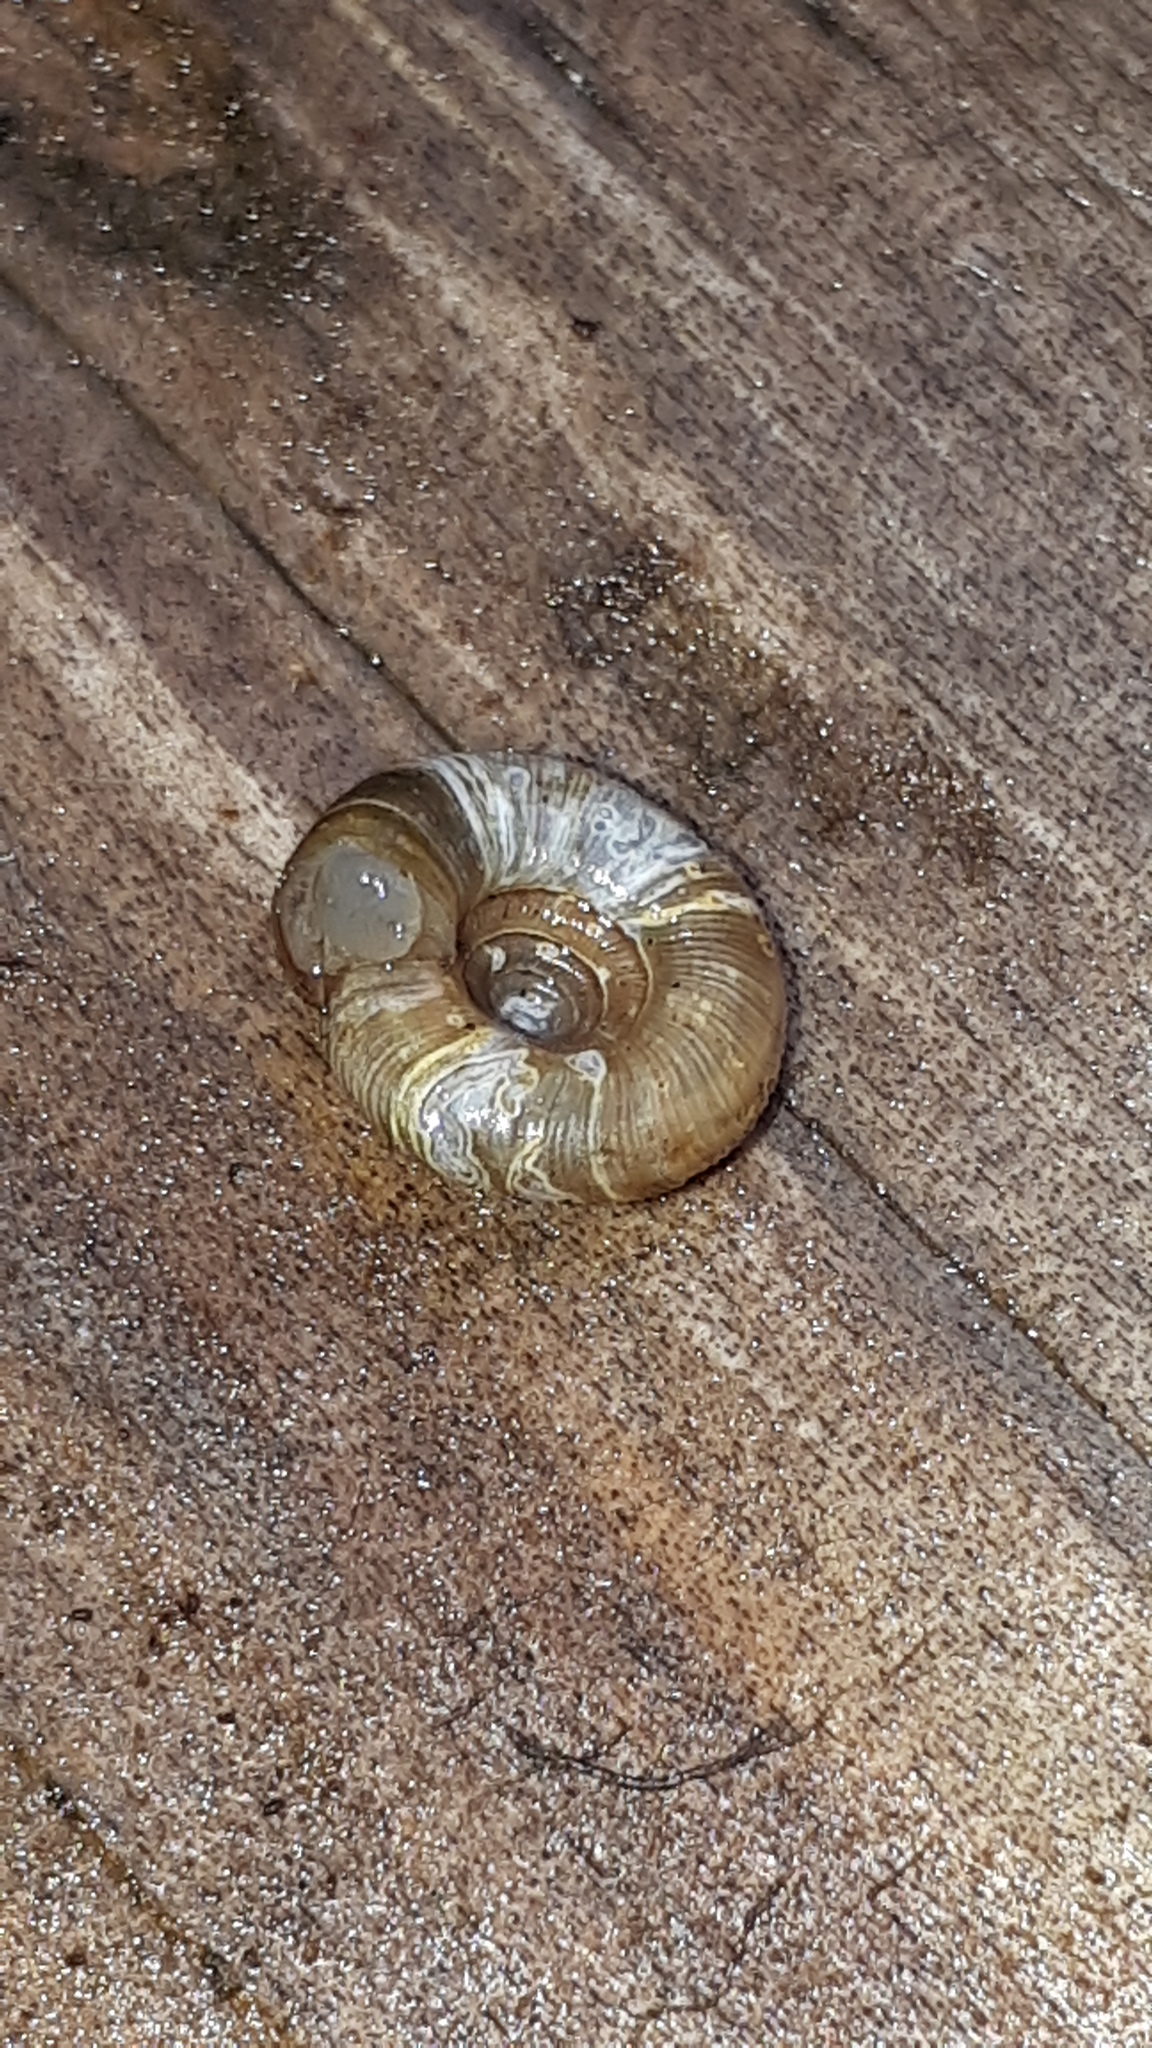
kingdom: Animalia
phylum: Mollusca
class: Gastropoda
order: Stylommatophora
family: Discidae
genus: Discus
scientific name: Discus rotundatus
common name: Rounded snail
